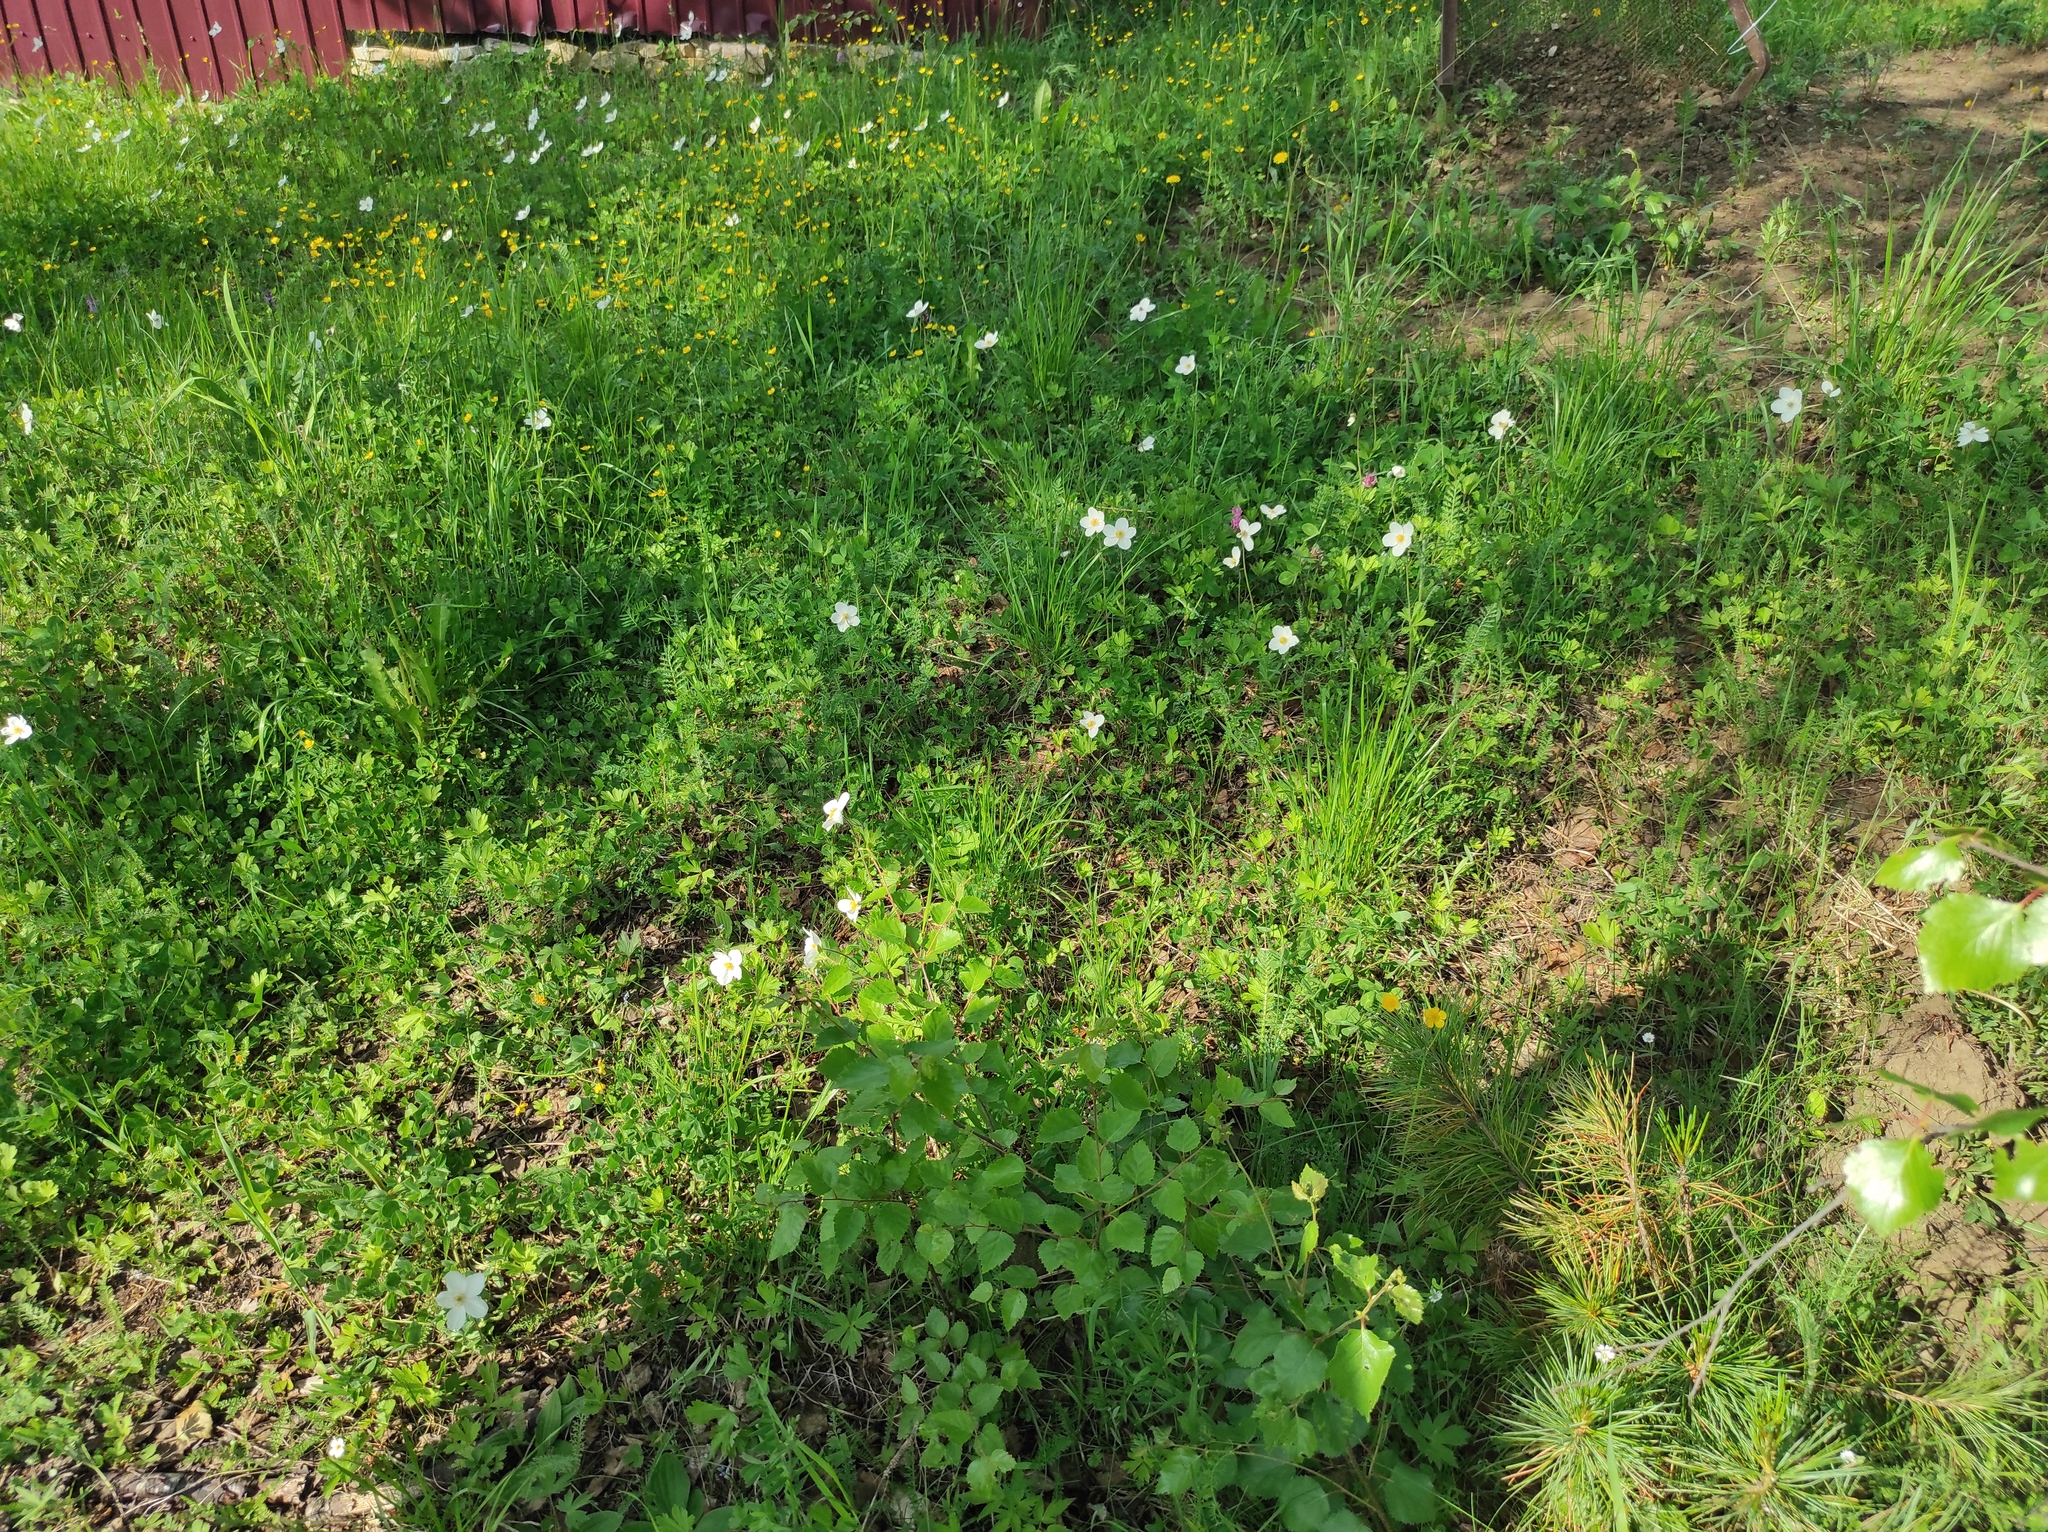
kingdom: Plantae
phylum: Tracheophyta
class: Magnoliopsida
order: Ranunculales
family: Ranunculaceae
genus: Anemone
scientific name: Anemone sylvestris
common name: Snowdrop anemone
